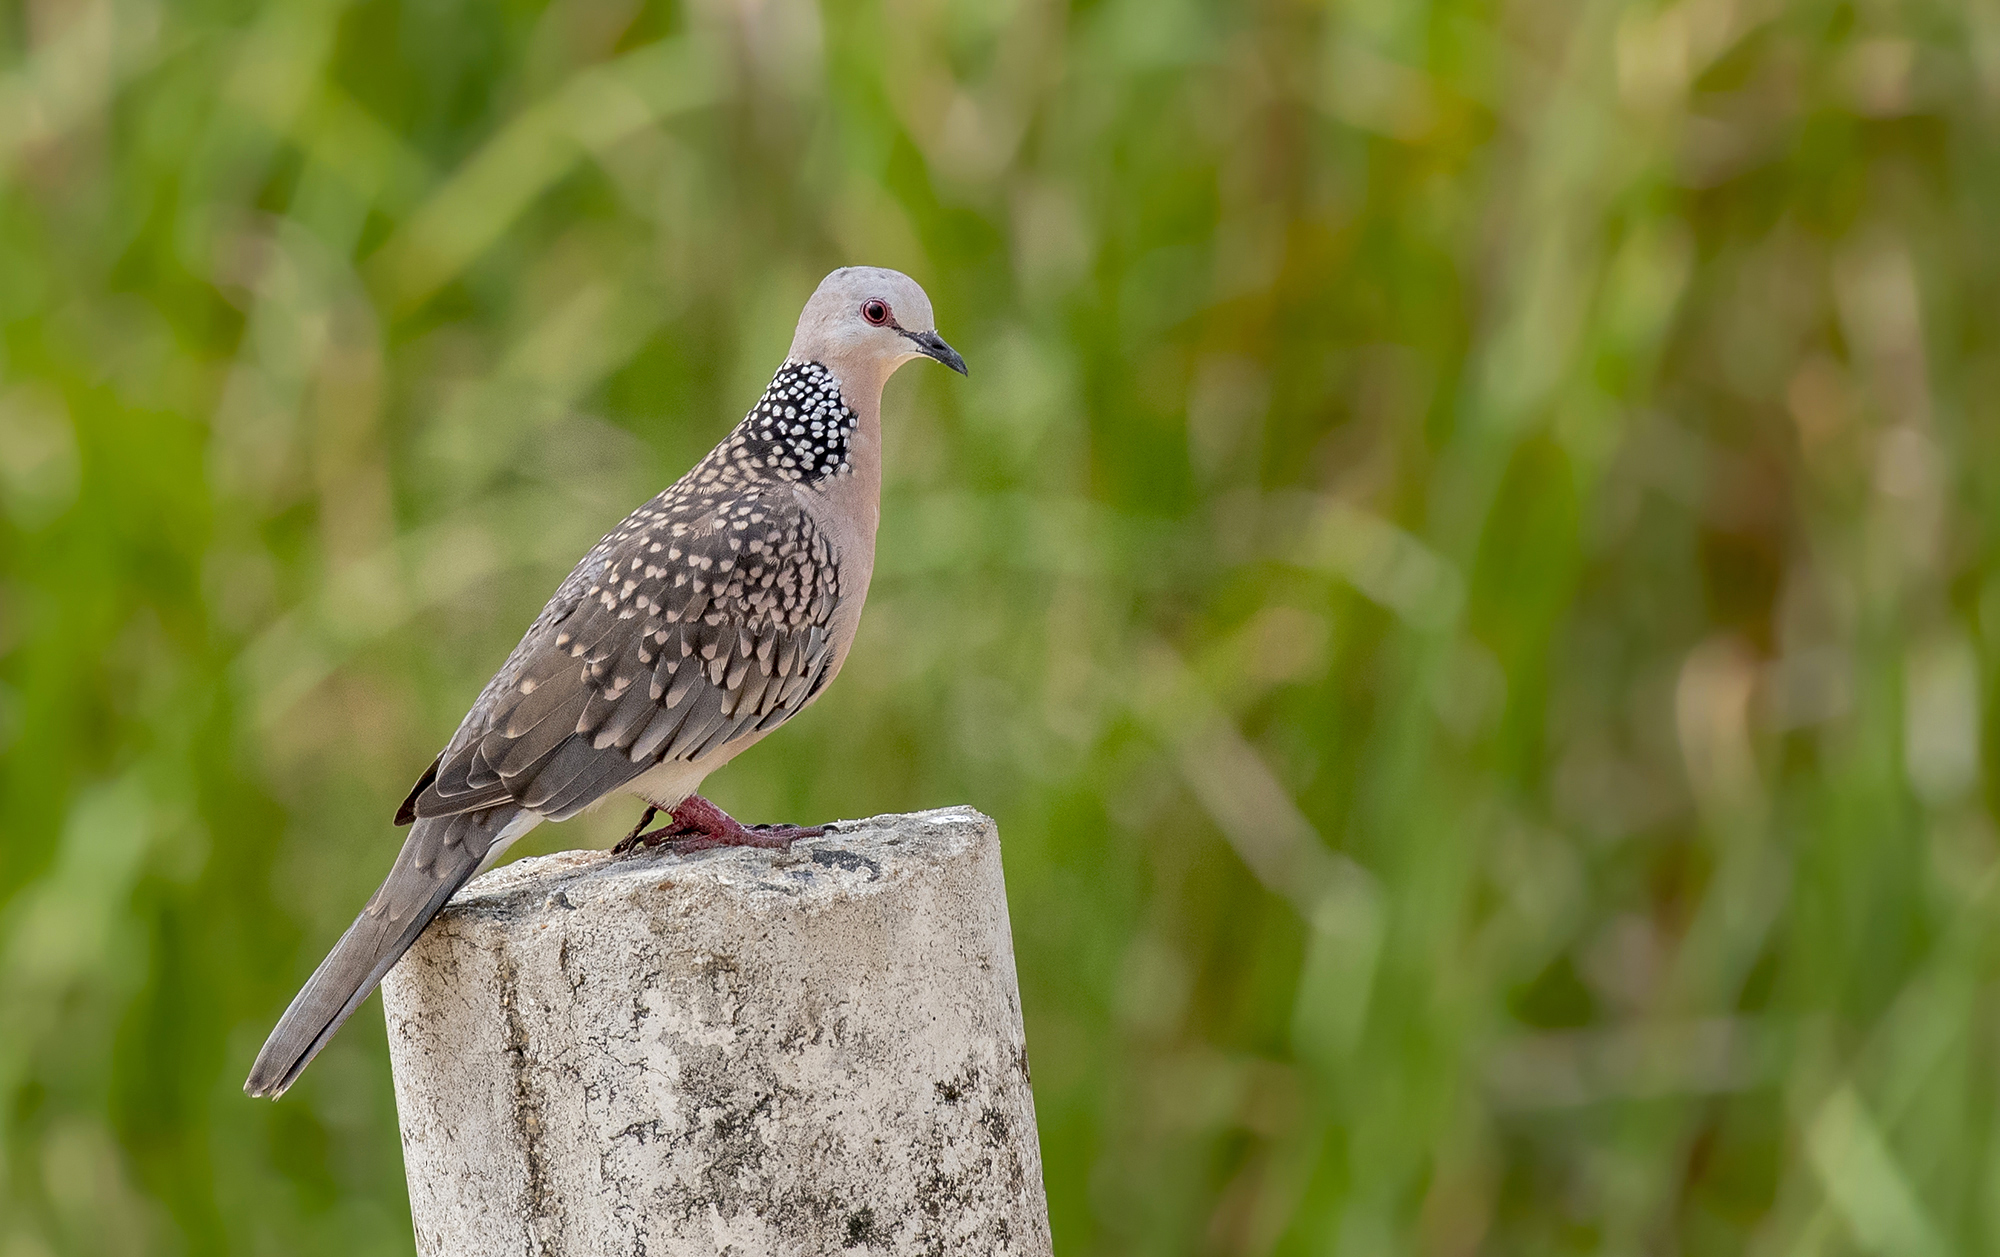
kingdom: Animalia
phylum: Chordata
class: Aves
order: Columbiformes
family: Columbidae
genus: Spilopelia
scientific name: Spilopelia chinensis
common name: Spotted dove
